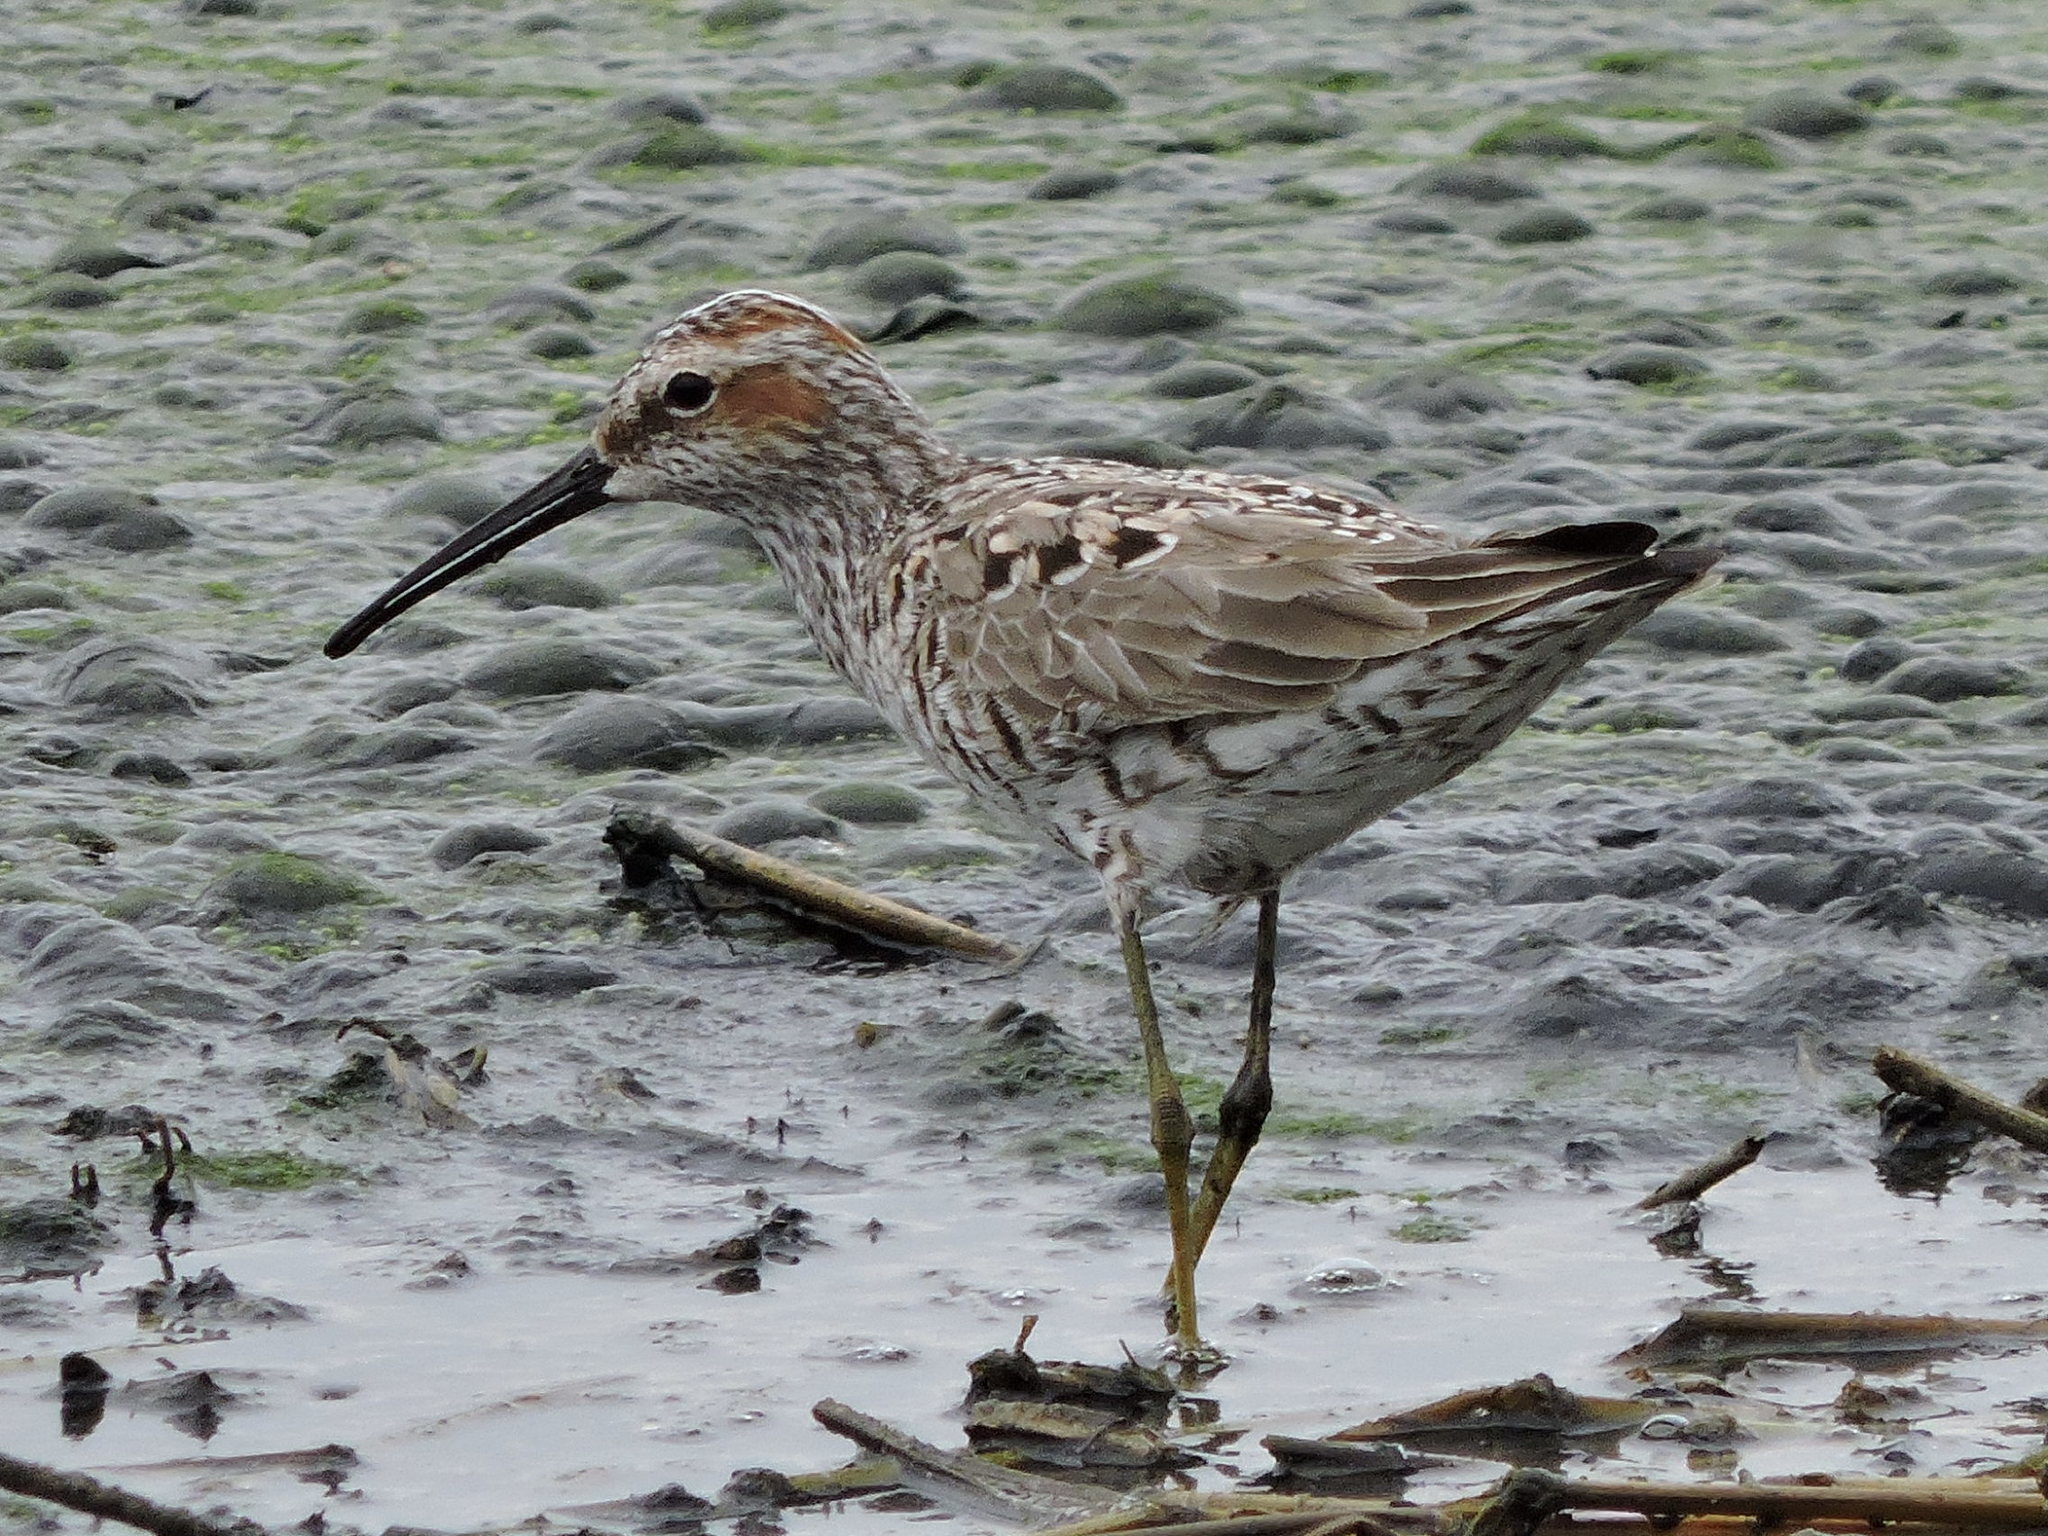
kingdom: Animalia
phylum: Chordata
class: Aves
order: Charadriiformes
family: Scolopacidae
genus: Calidris
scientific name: Calidris himantopus
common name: Stilt sandpiper
